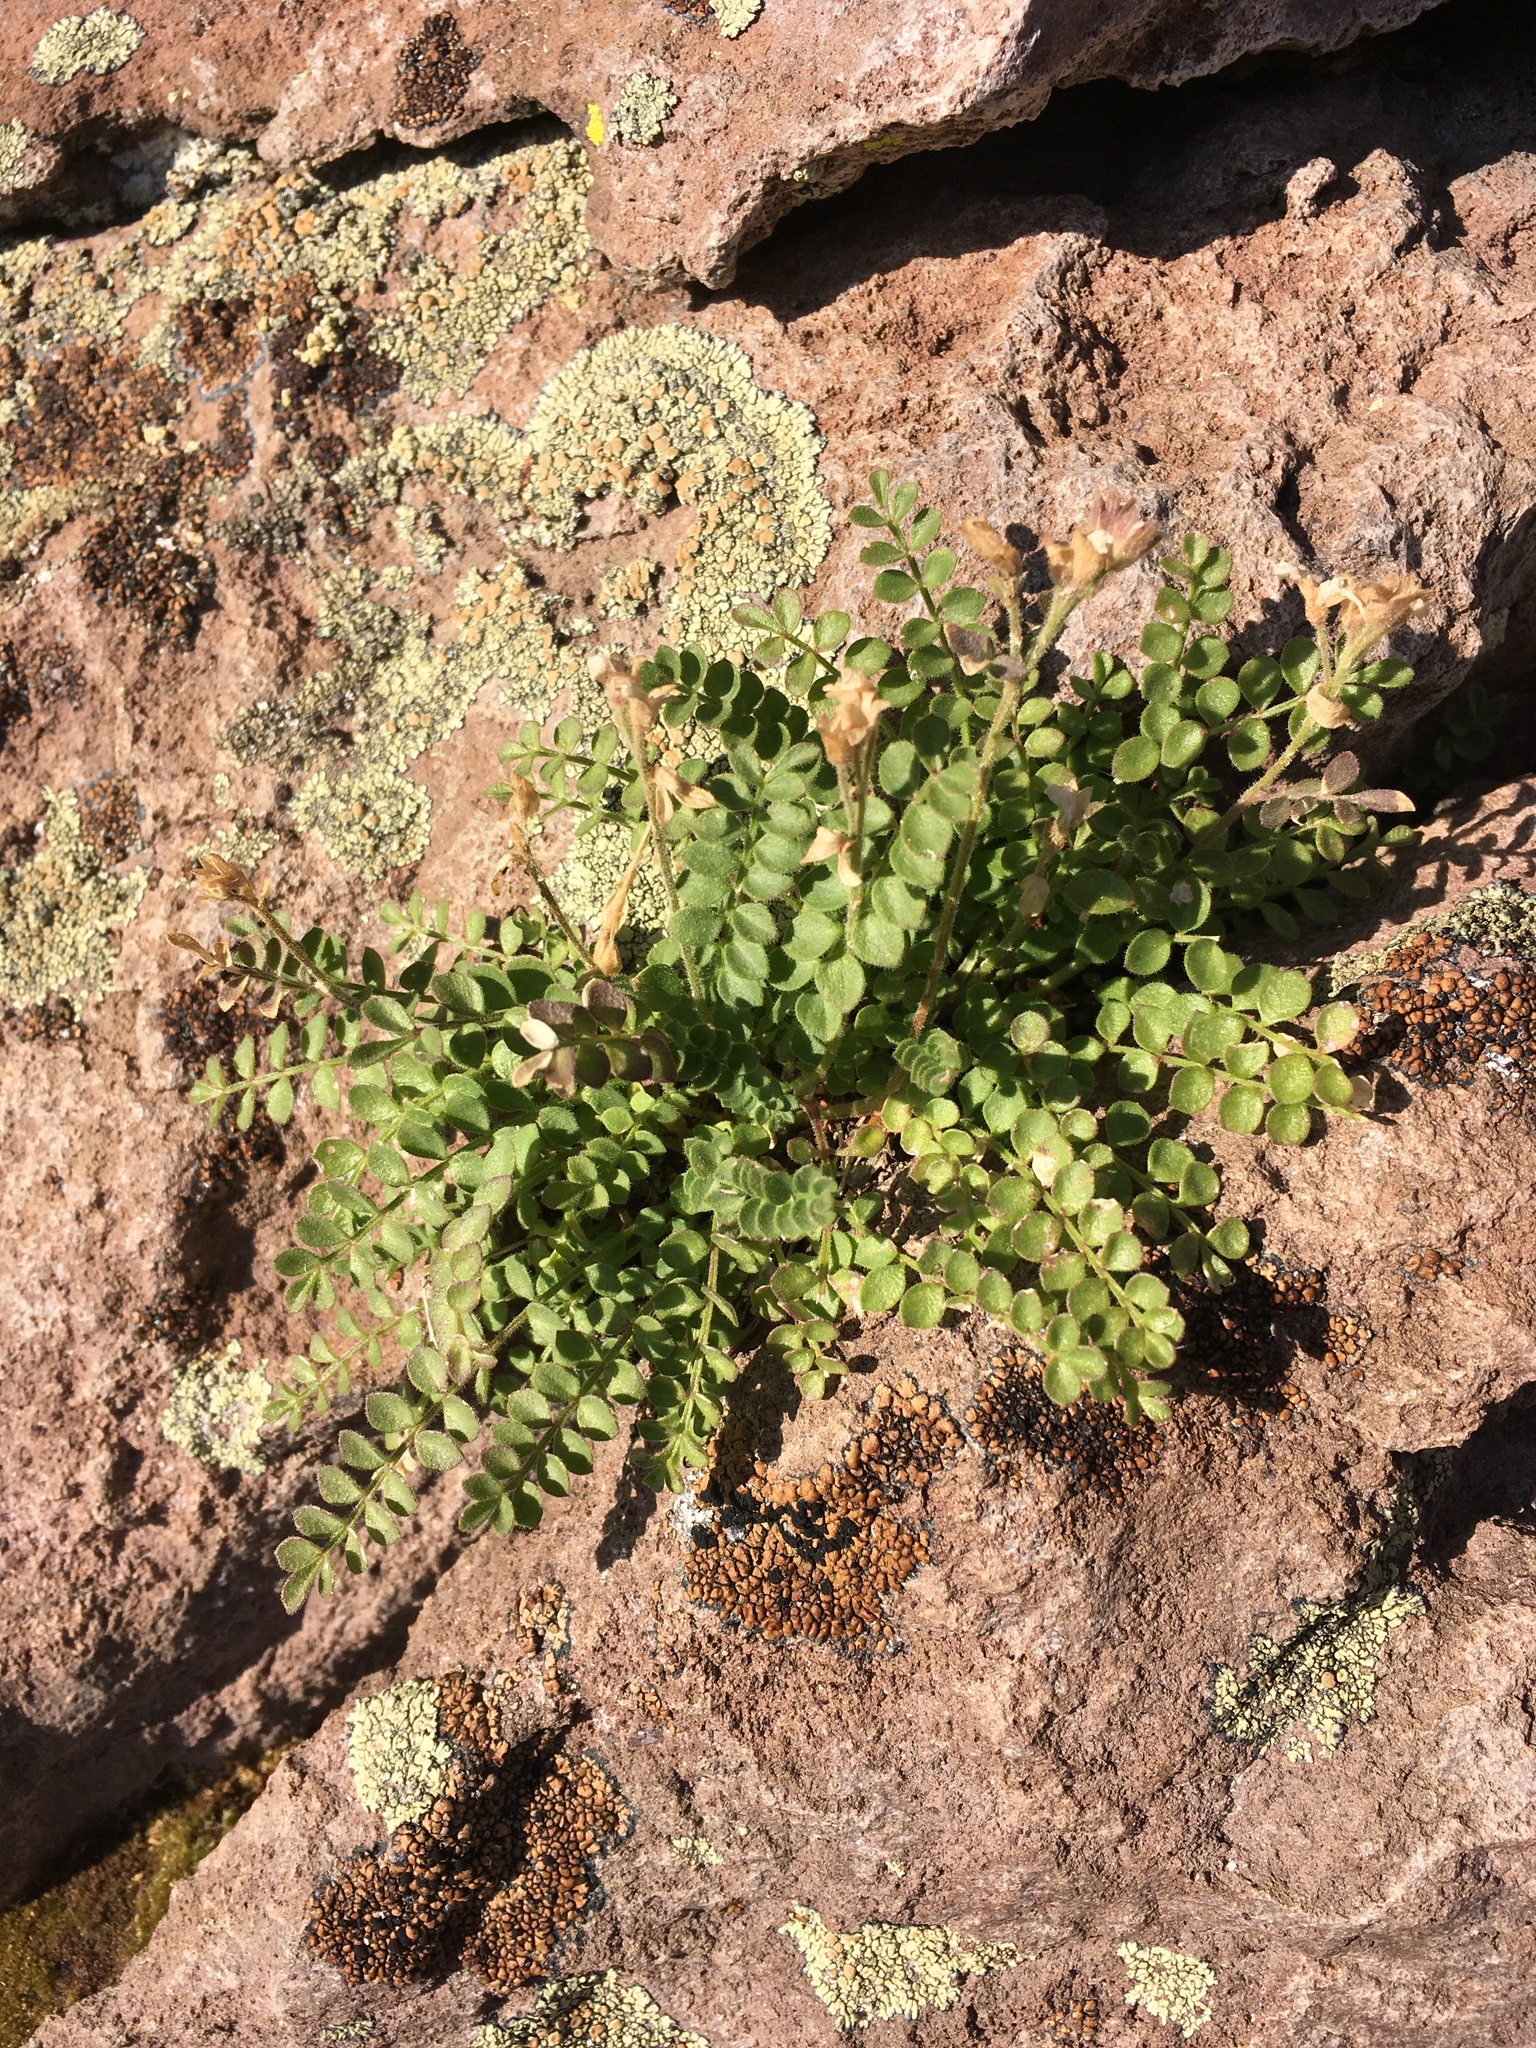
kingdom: Plantae
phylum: Tracheophyta
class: Magnoliopsida
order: Ericales
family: Polemoniaceae
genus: Polemonium
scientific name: Polemonium pulcherrimum
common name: Short jacob's-ladder
